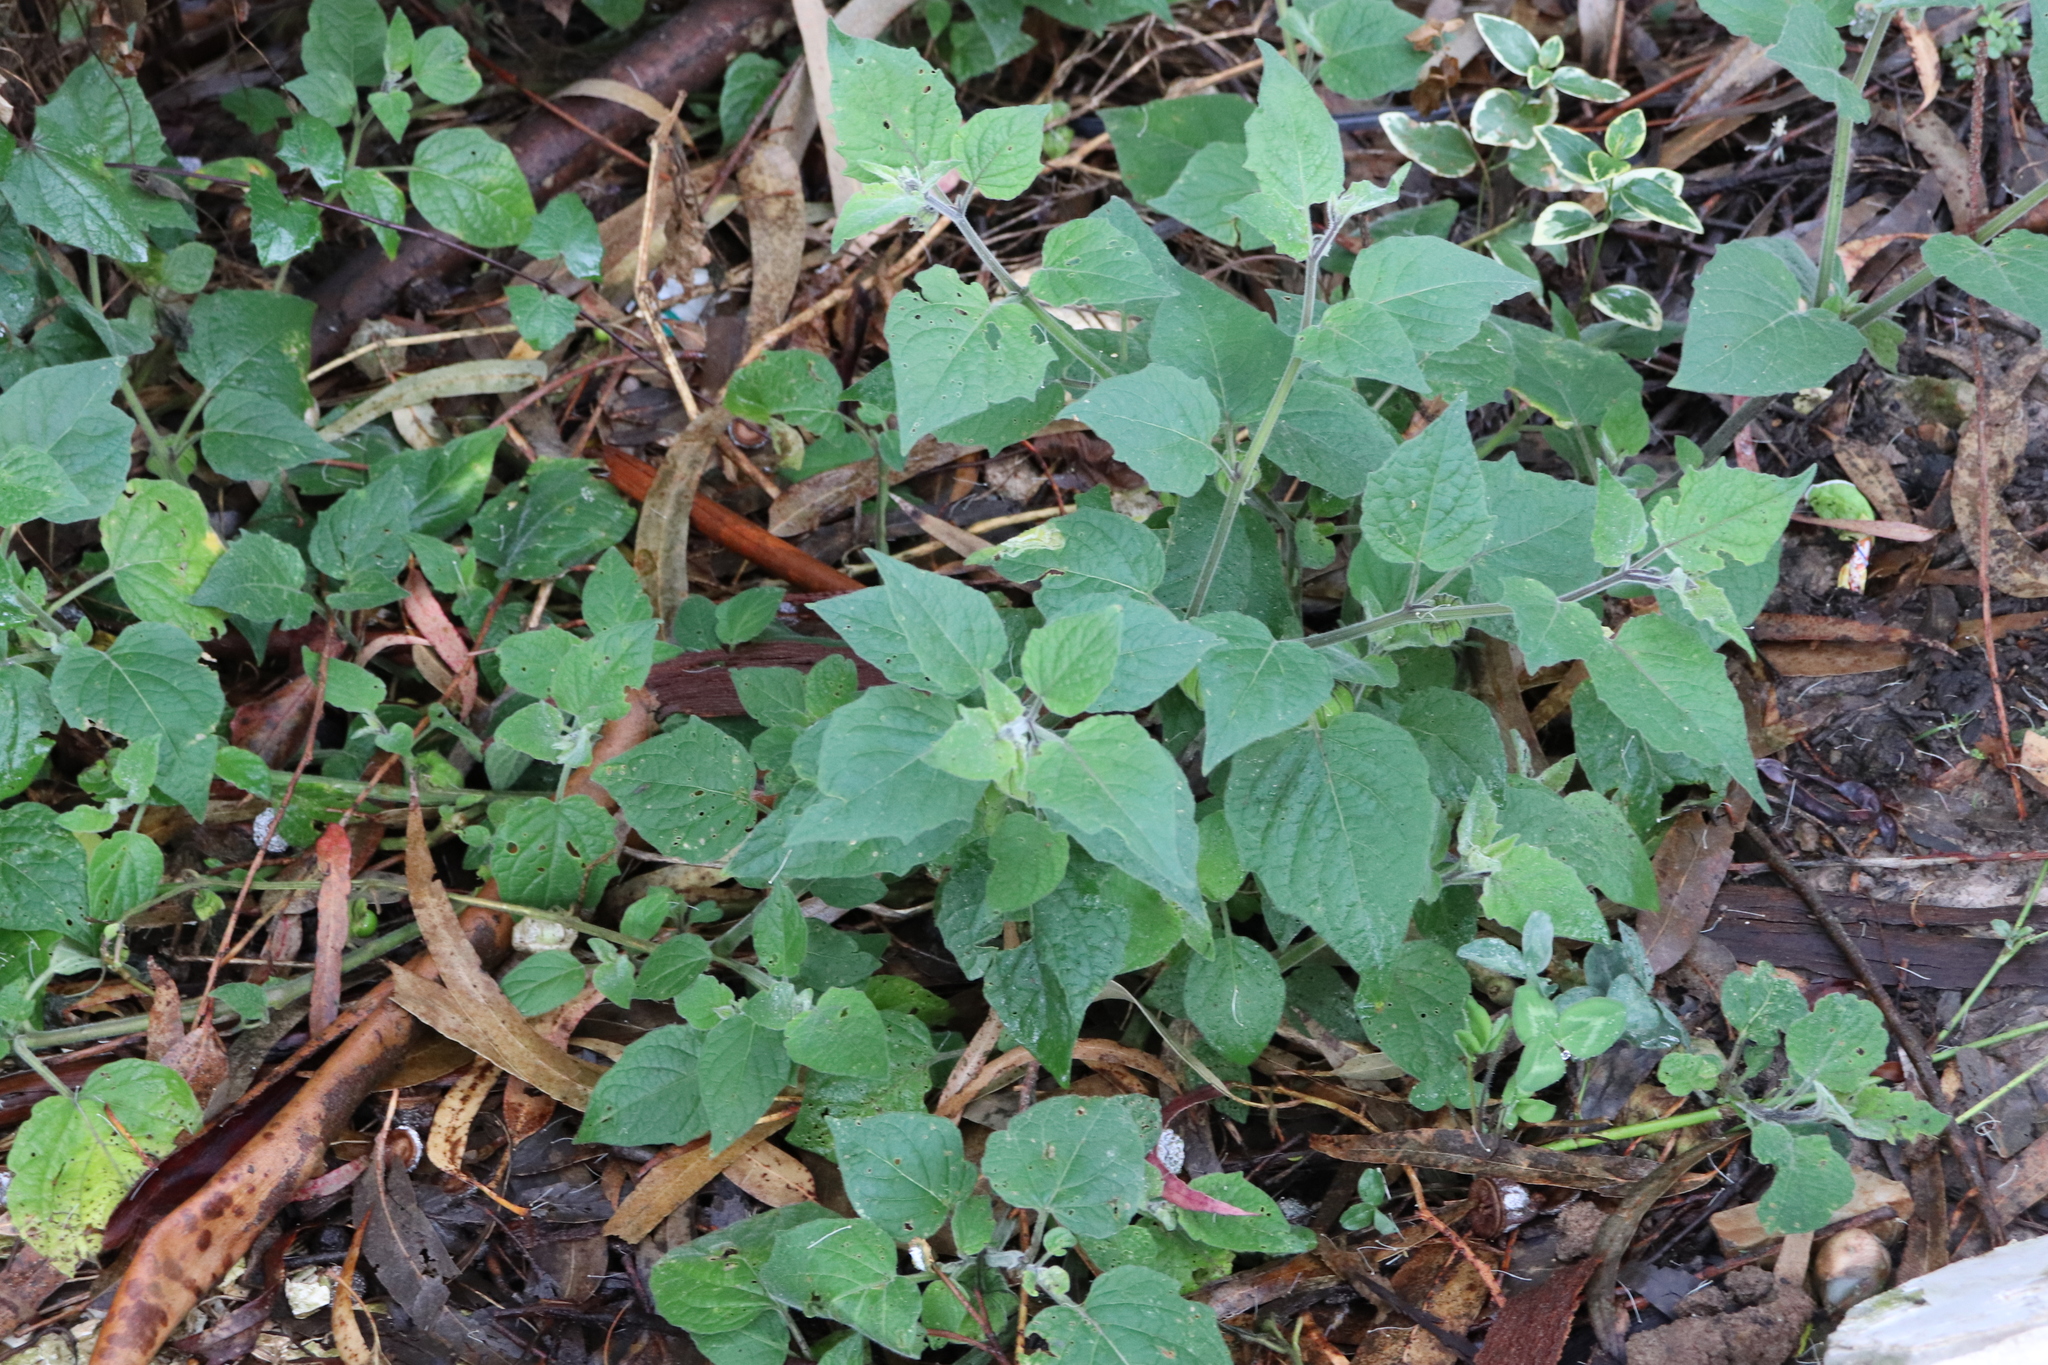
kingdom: Plantae
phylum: Tracheophyta
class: Magnoliopsida
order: Solanales
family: Solanaceae
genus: Physalis
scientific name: Physalis peruviana
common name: Cape-gooseberry
